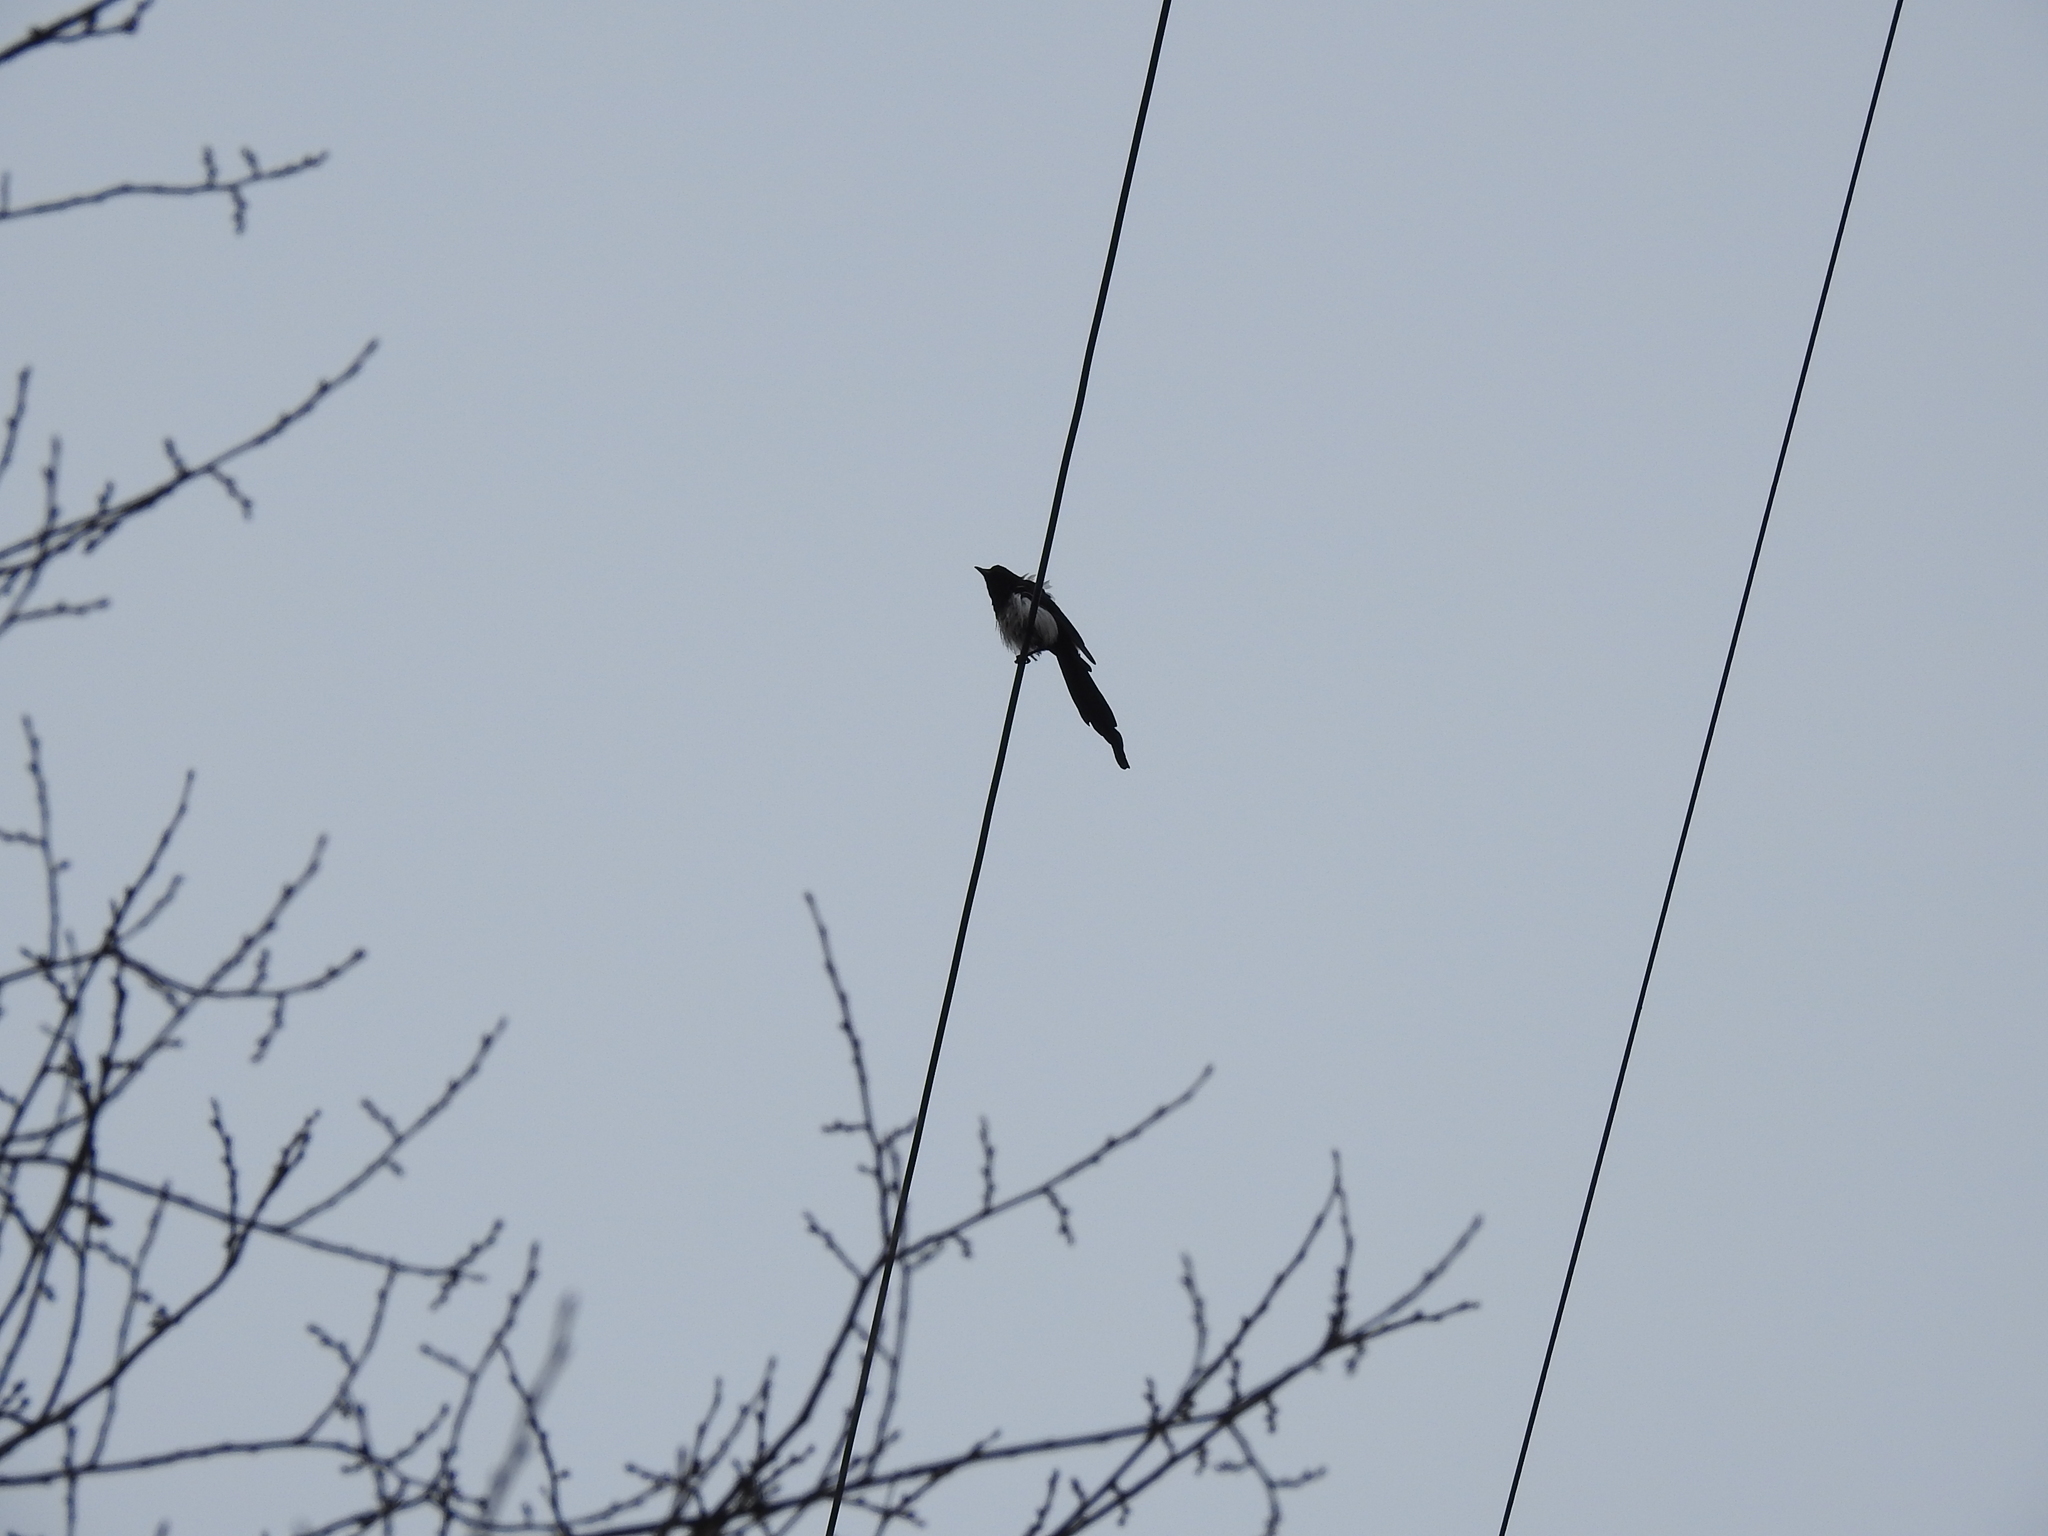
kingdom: Animalia
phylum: Chordata
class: Aves
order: Passeriformes
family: Corvidae
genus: Pica
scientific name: Pica pica
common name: Eurasian magpie
